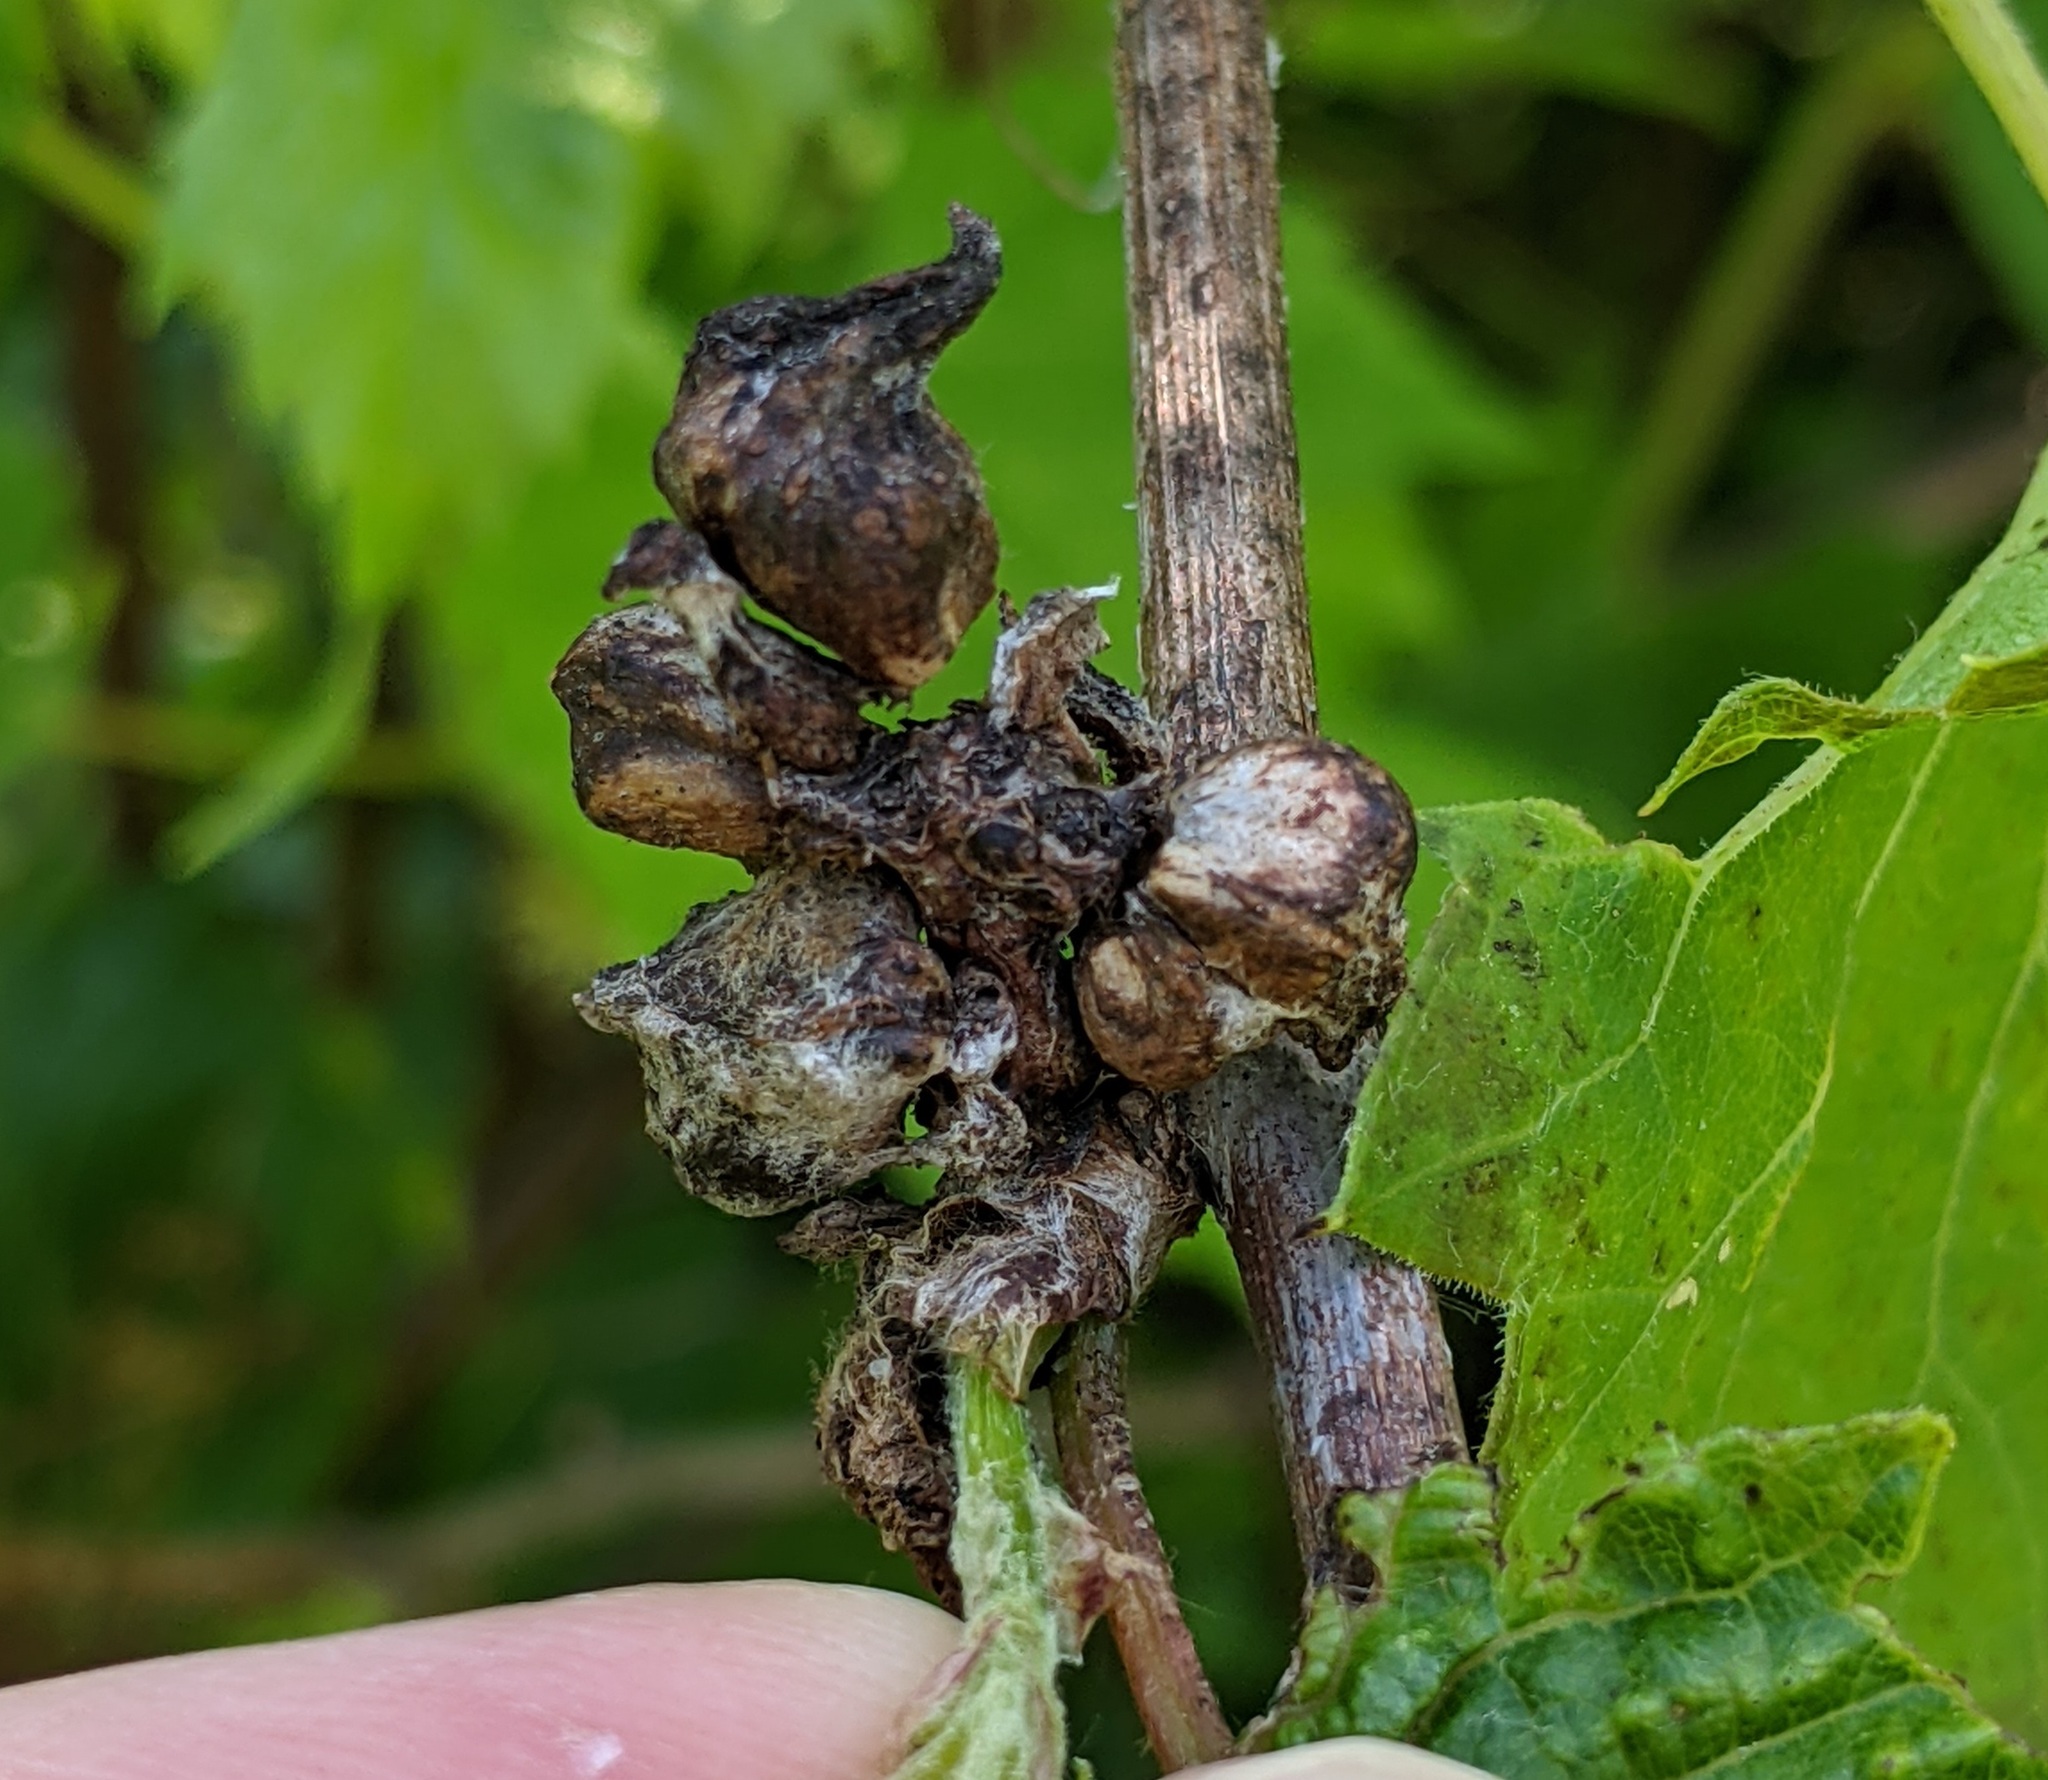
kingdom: Animalia
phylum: Arthropoda
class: Insecta
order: Diptera
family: Cecidomyiidae
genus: Ampelomyia
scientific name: Ampelomyia vitiscoryloides
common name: Grape filbert gall
